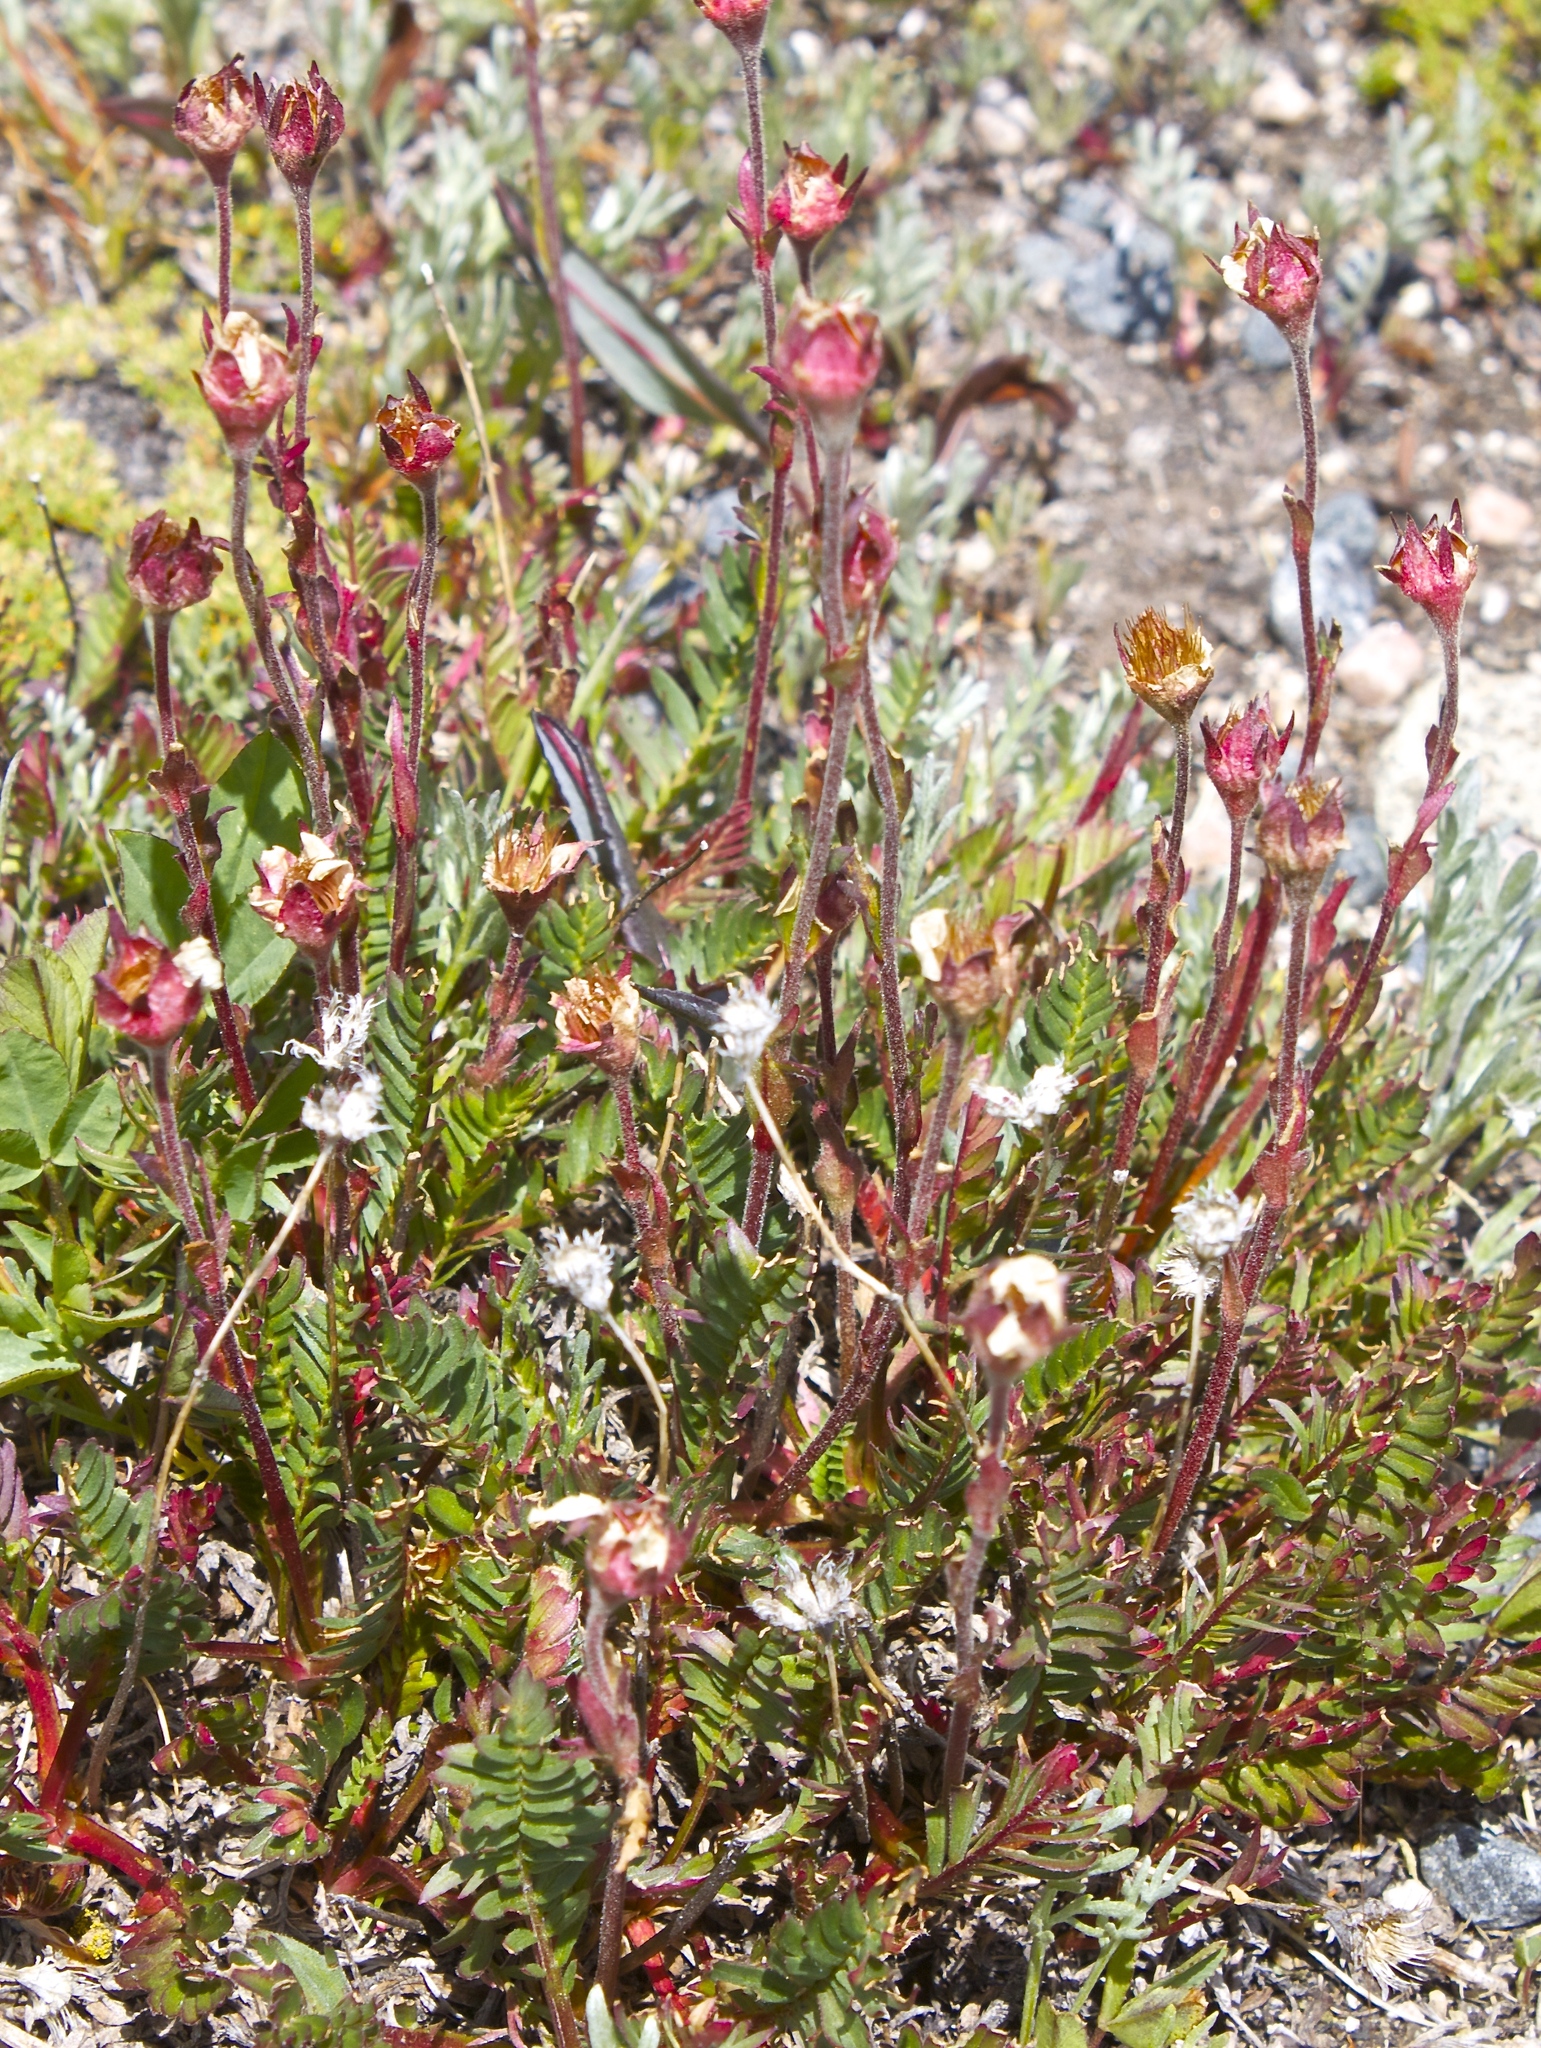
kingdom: Plantae
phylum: Tracheophyta
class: Magnoliopsida
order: Rosales
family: Rosaceae
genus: Geum
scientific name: Geum rossii
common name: Alpine avens
